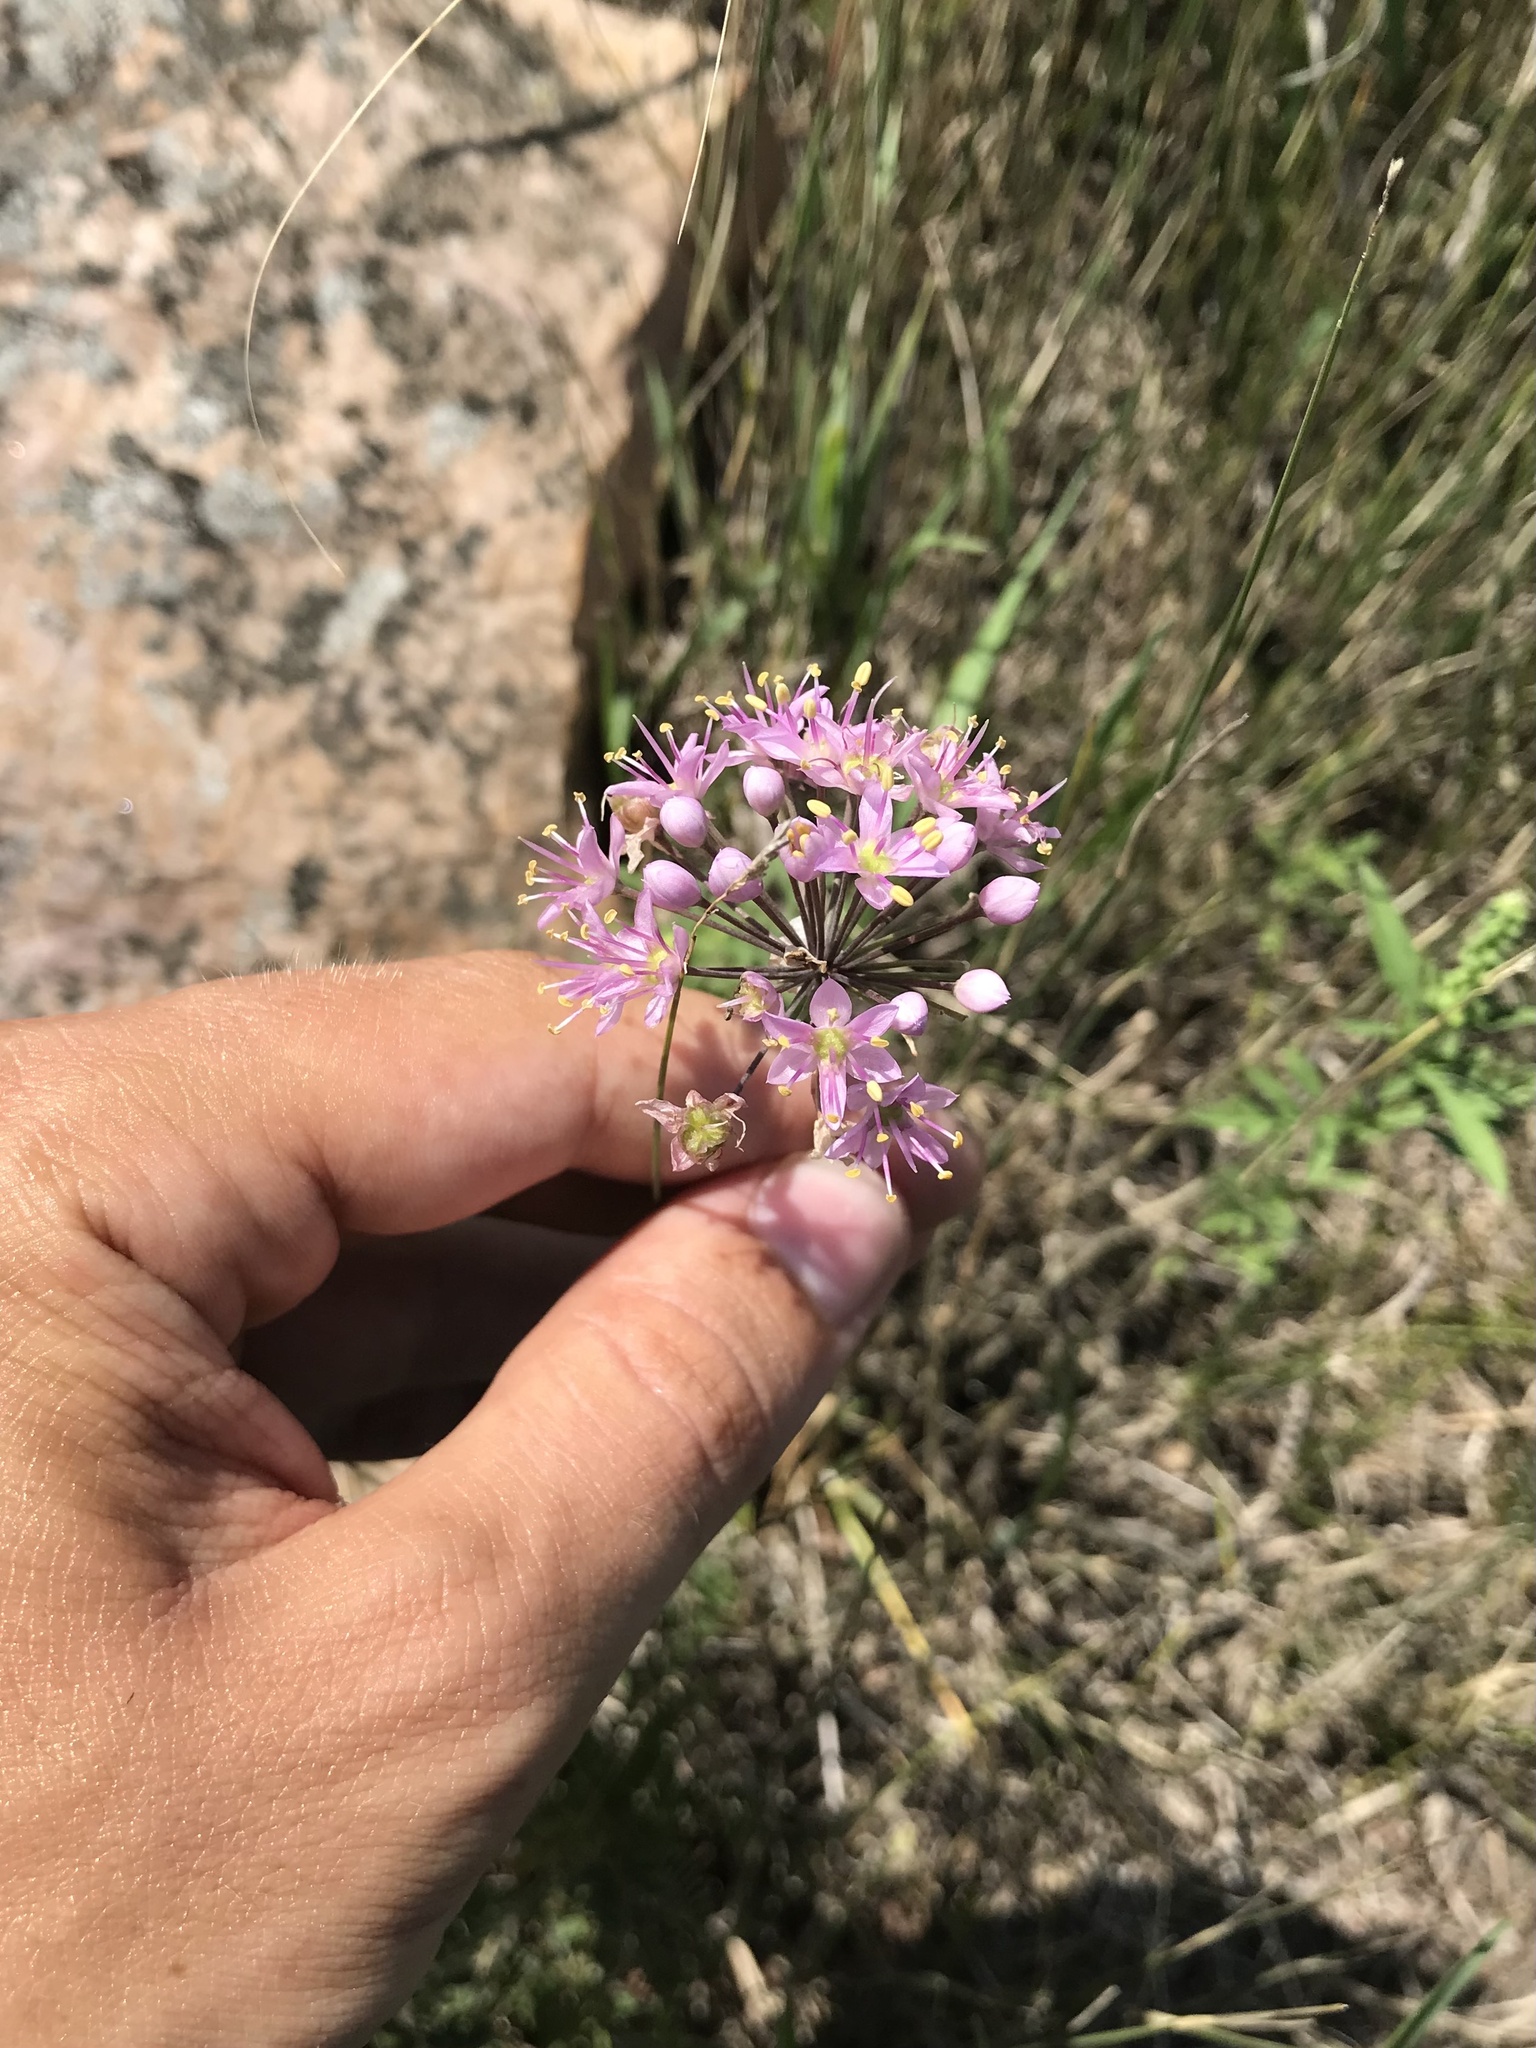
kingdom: Plantae
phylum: Tracheophyta
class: Liliopsida
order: Asparagales
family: Amaryllidaceae
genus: Allium
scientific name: Allium stellatum
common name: Autumn onion
